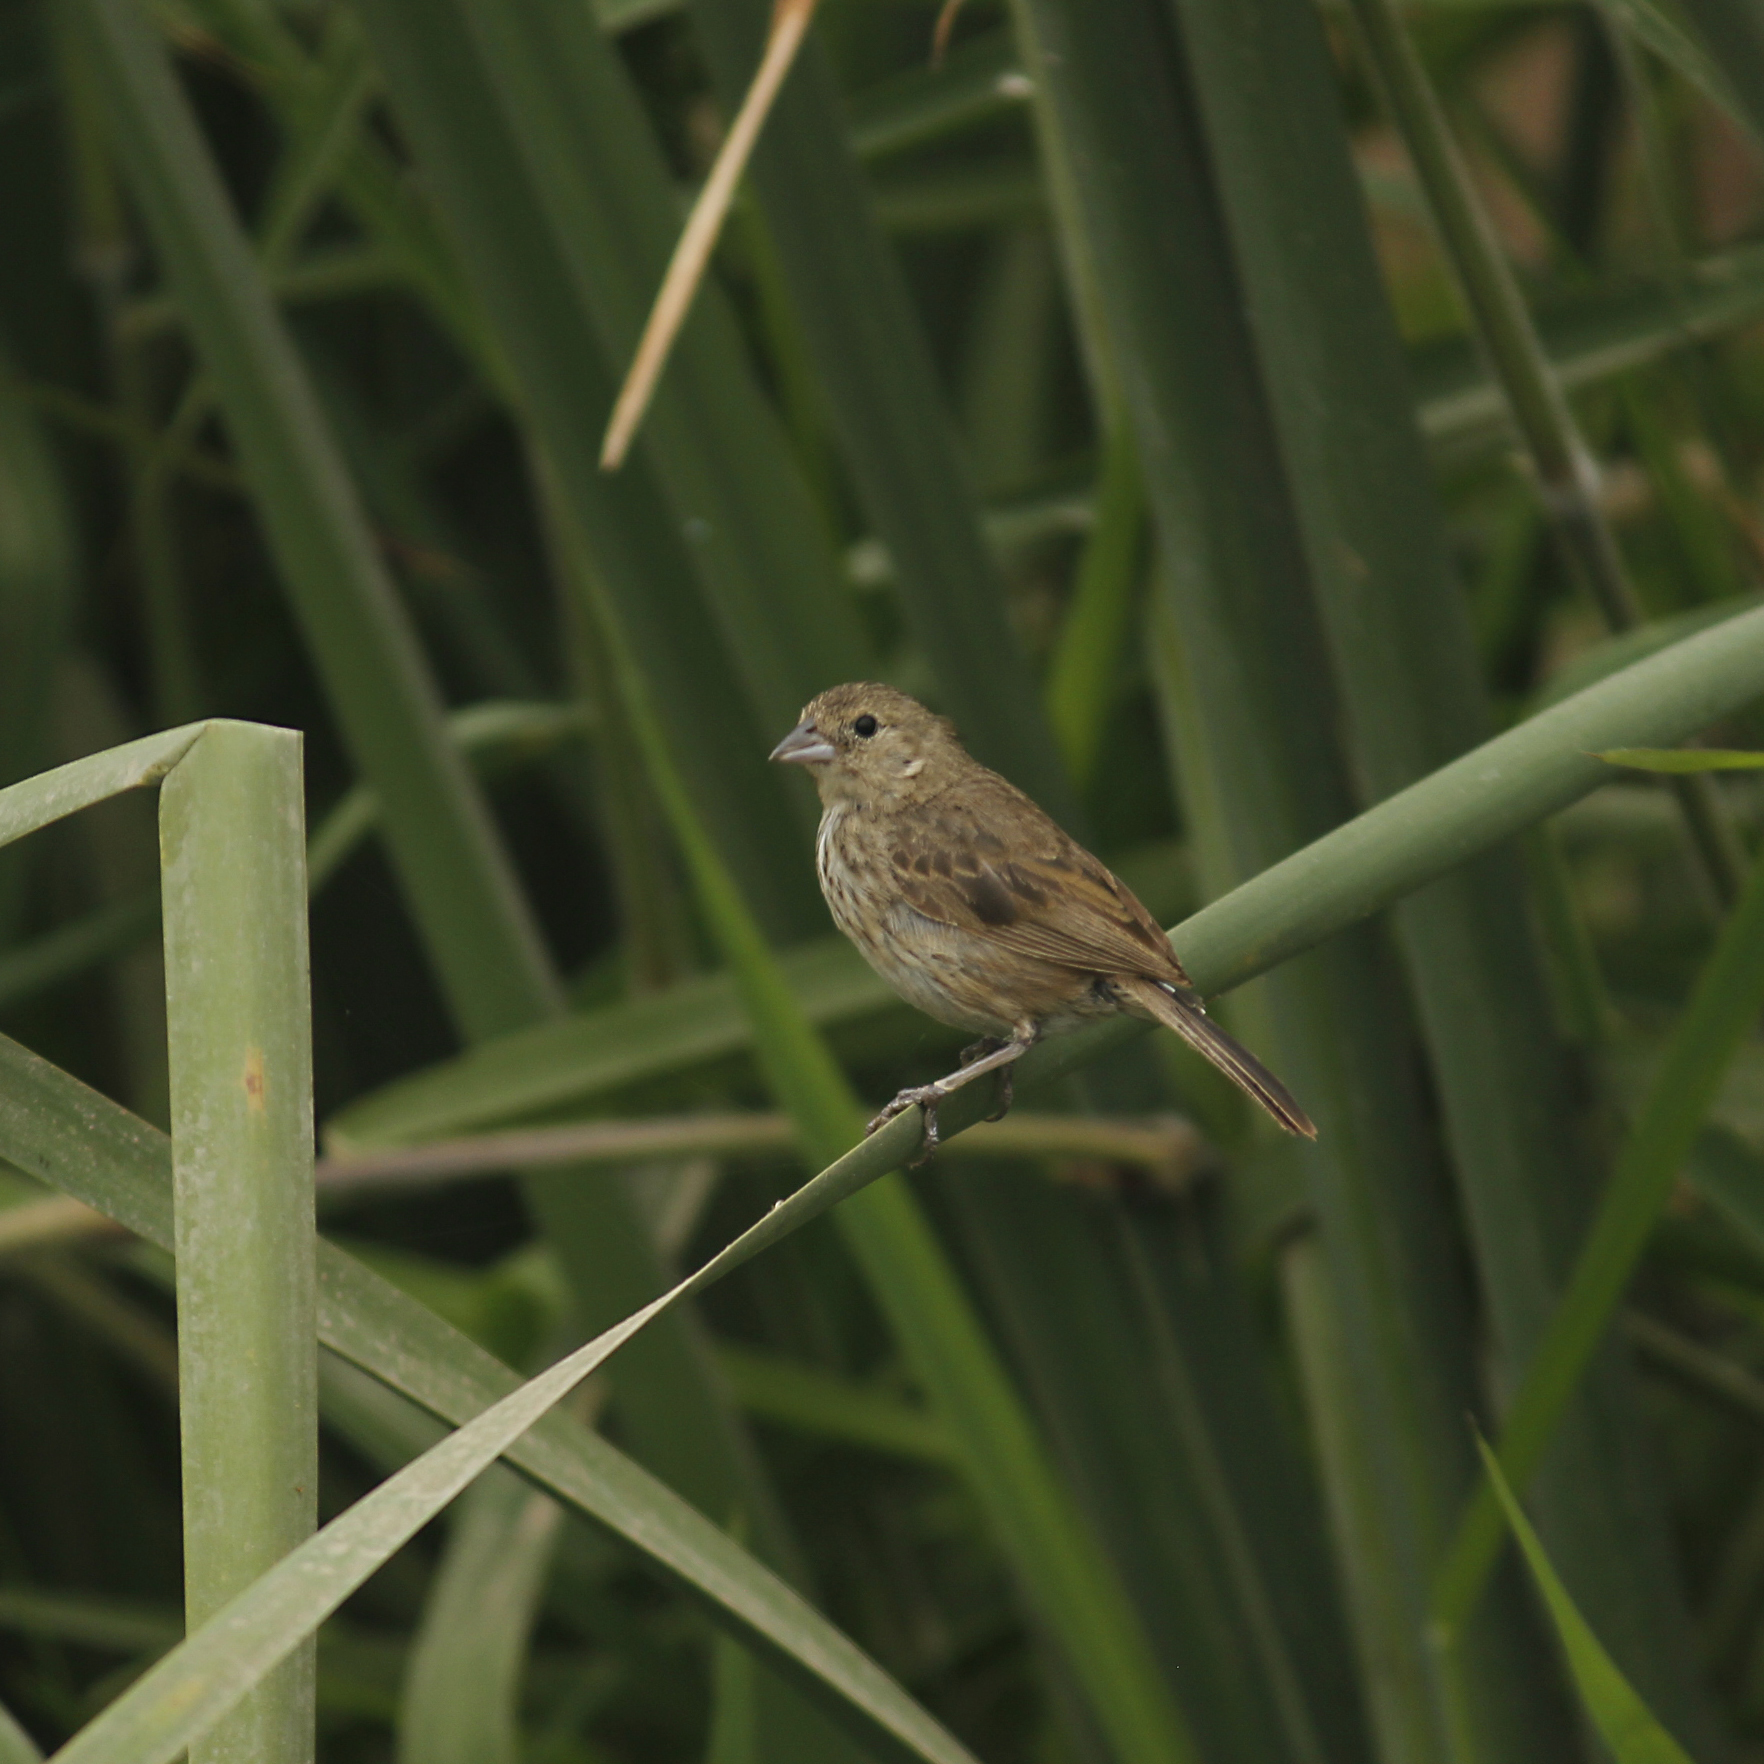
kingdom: Animalia
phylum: Chordata
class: Aves
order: Passeriformes
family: Thraupidae
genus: Volatinia
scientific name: Volatinia jacarina
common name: Blue-black grassquit
